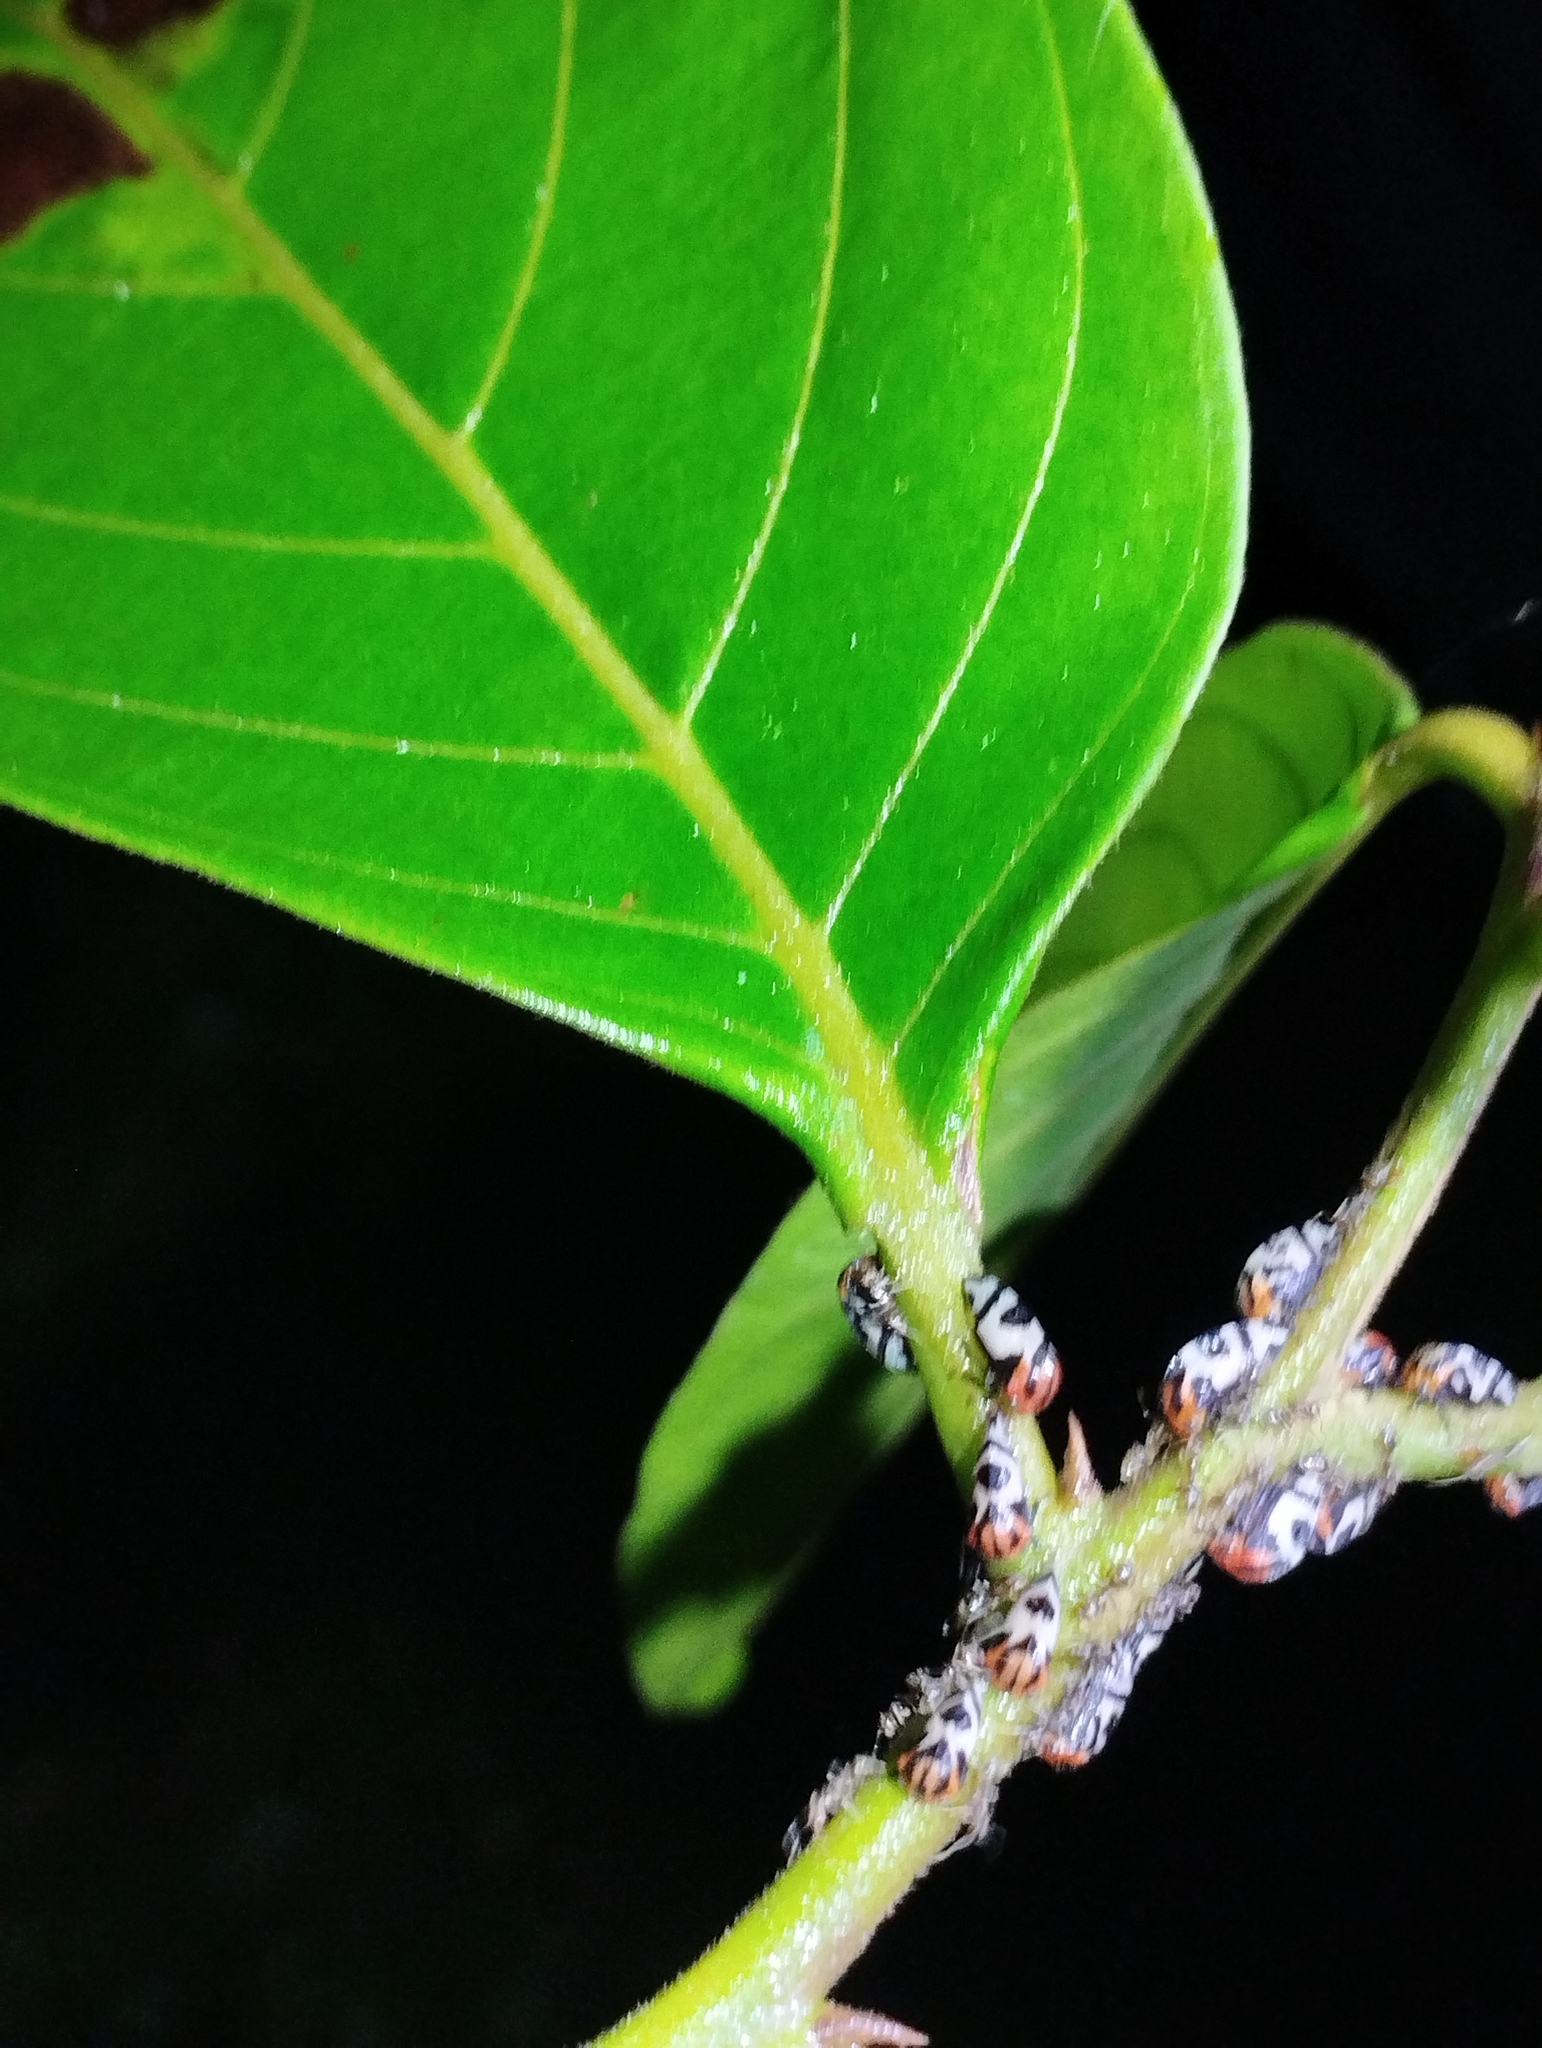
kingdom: Animalia
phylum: Arthropoda
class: Insecta
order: Hemiptera
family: Membracidae
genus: Adippe
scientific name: Adippe histrio
